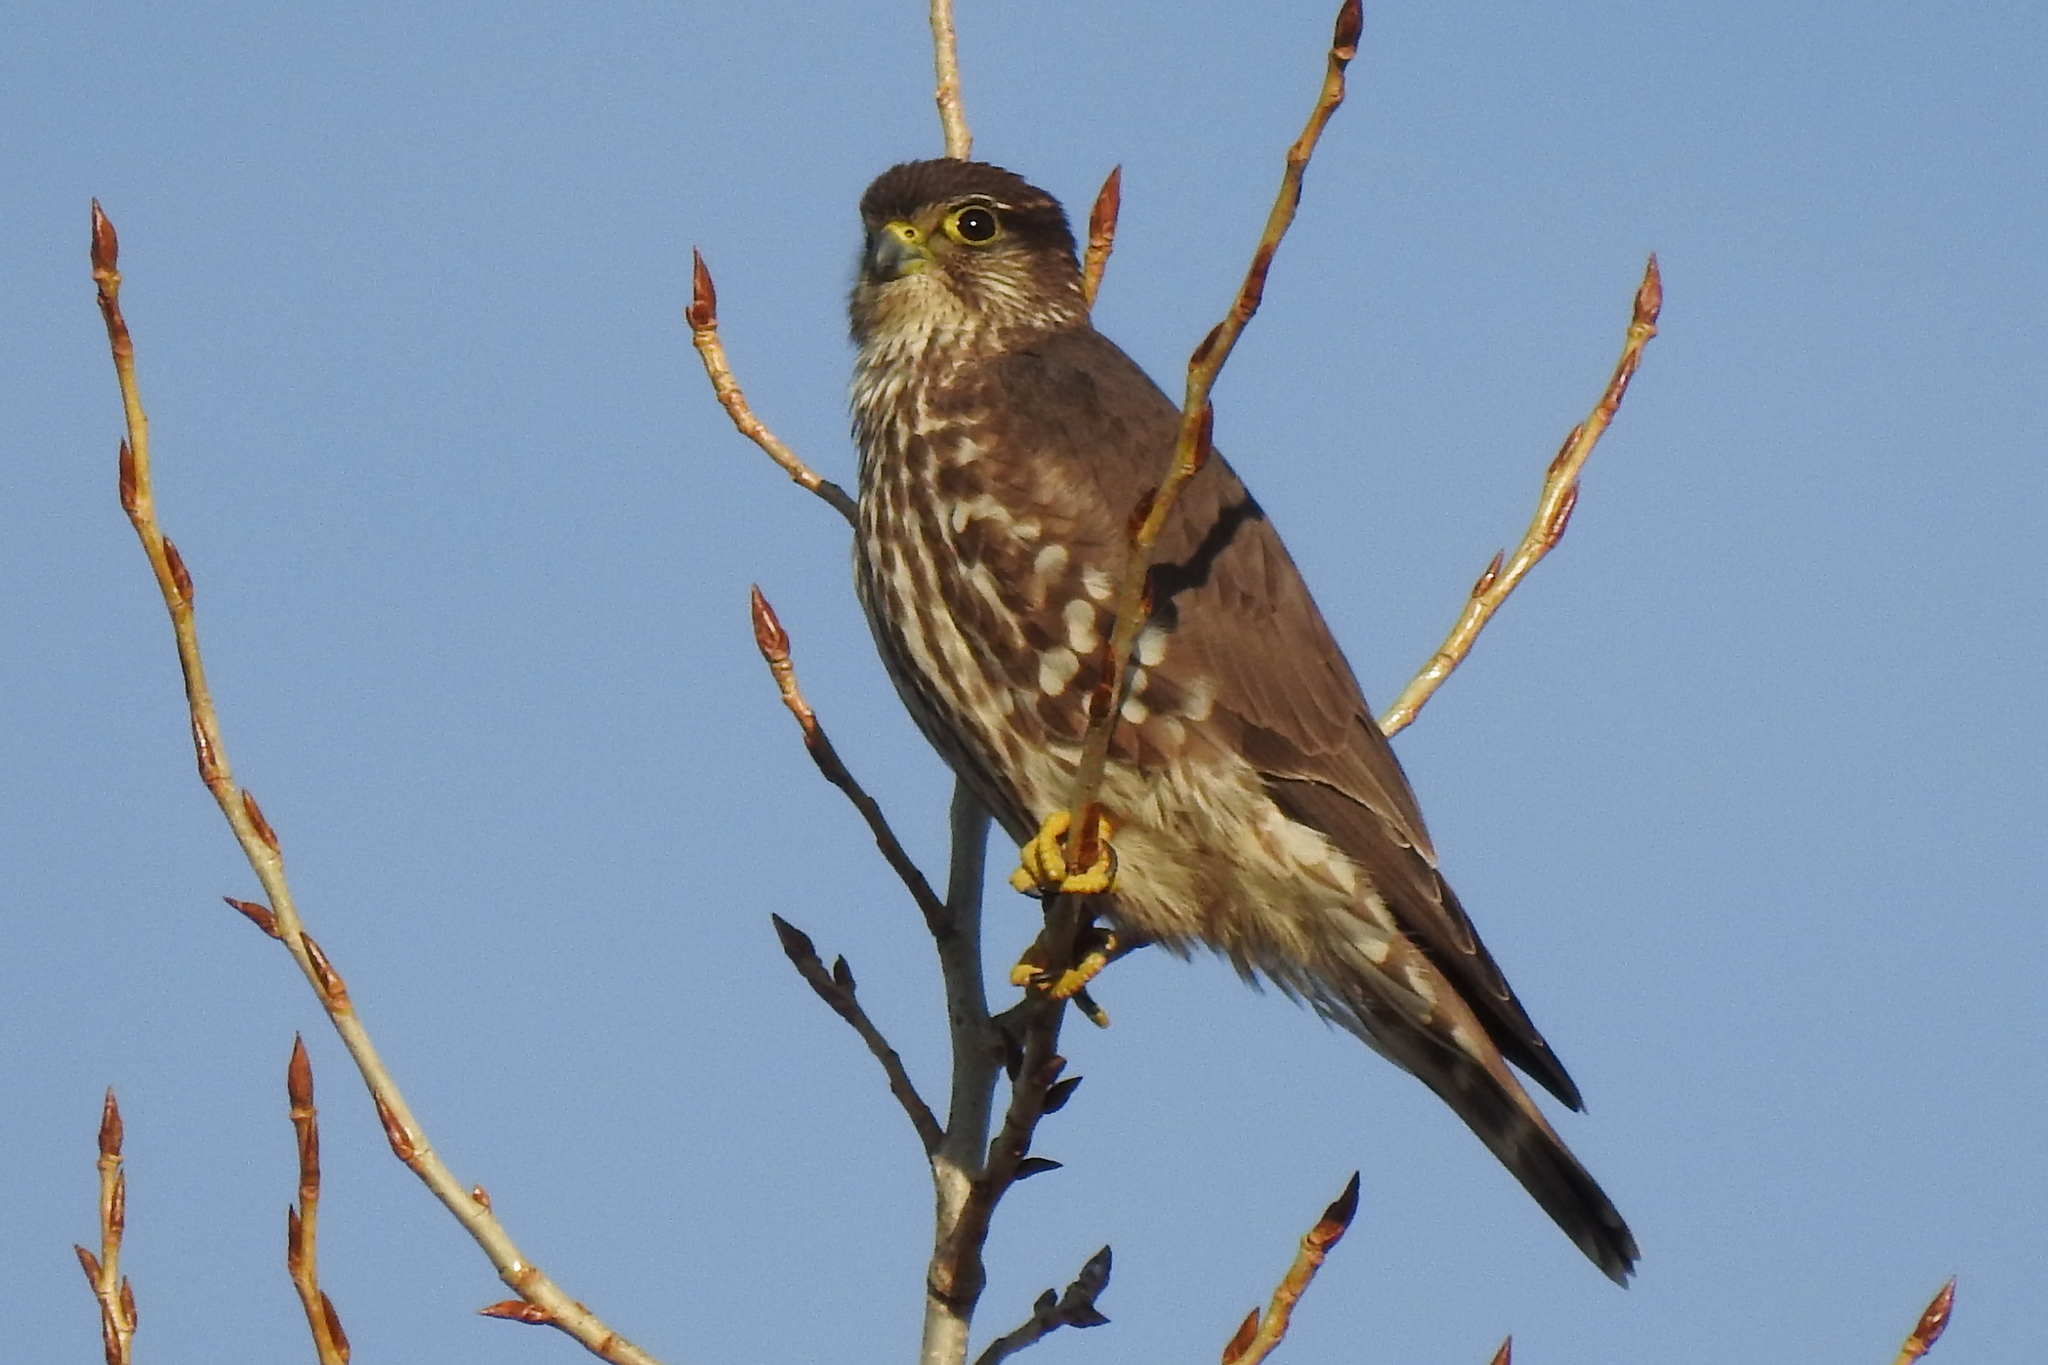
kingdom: Animalia
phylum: Chordata
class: Aves
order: Falconiformes
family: Falconidae
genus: Falco
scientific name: Falco columbarius
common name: Merlin
